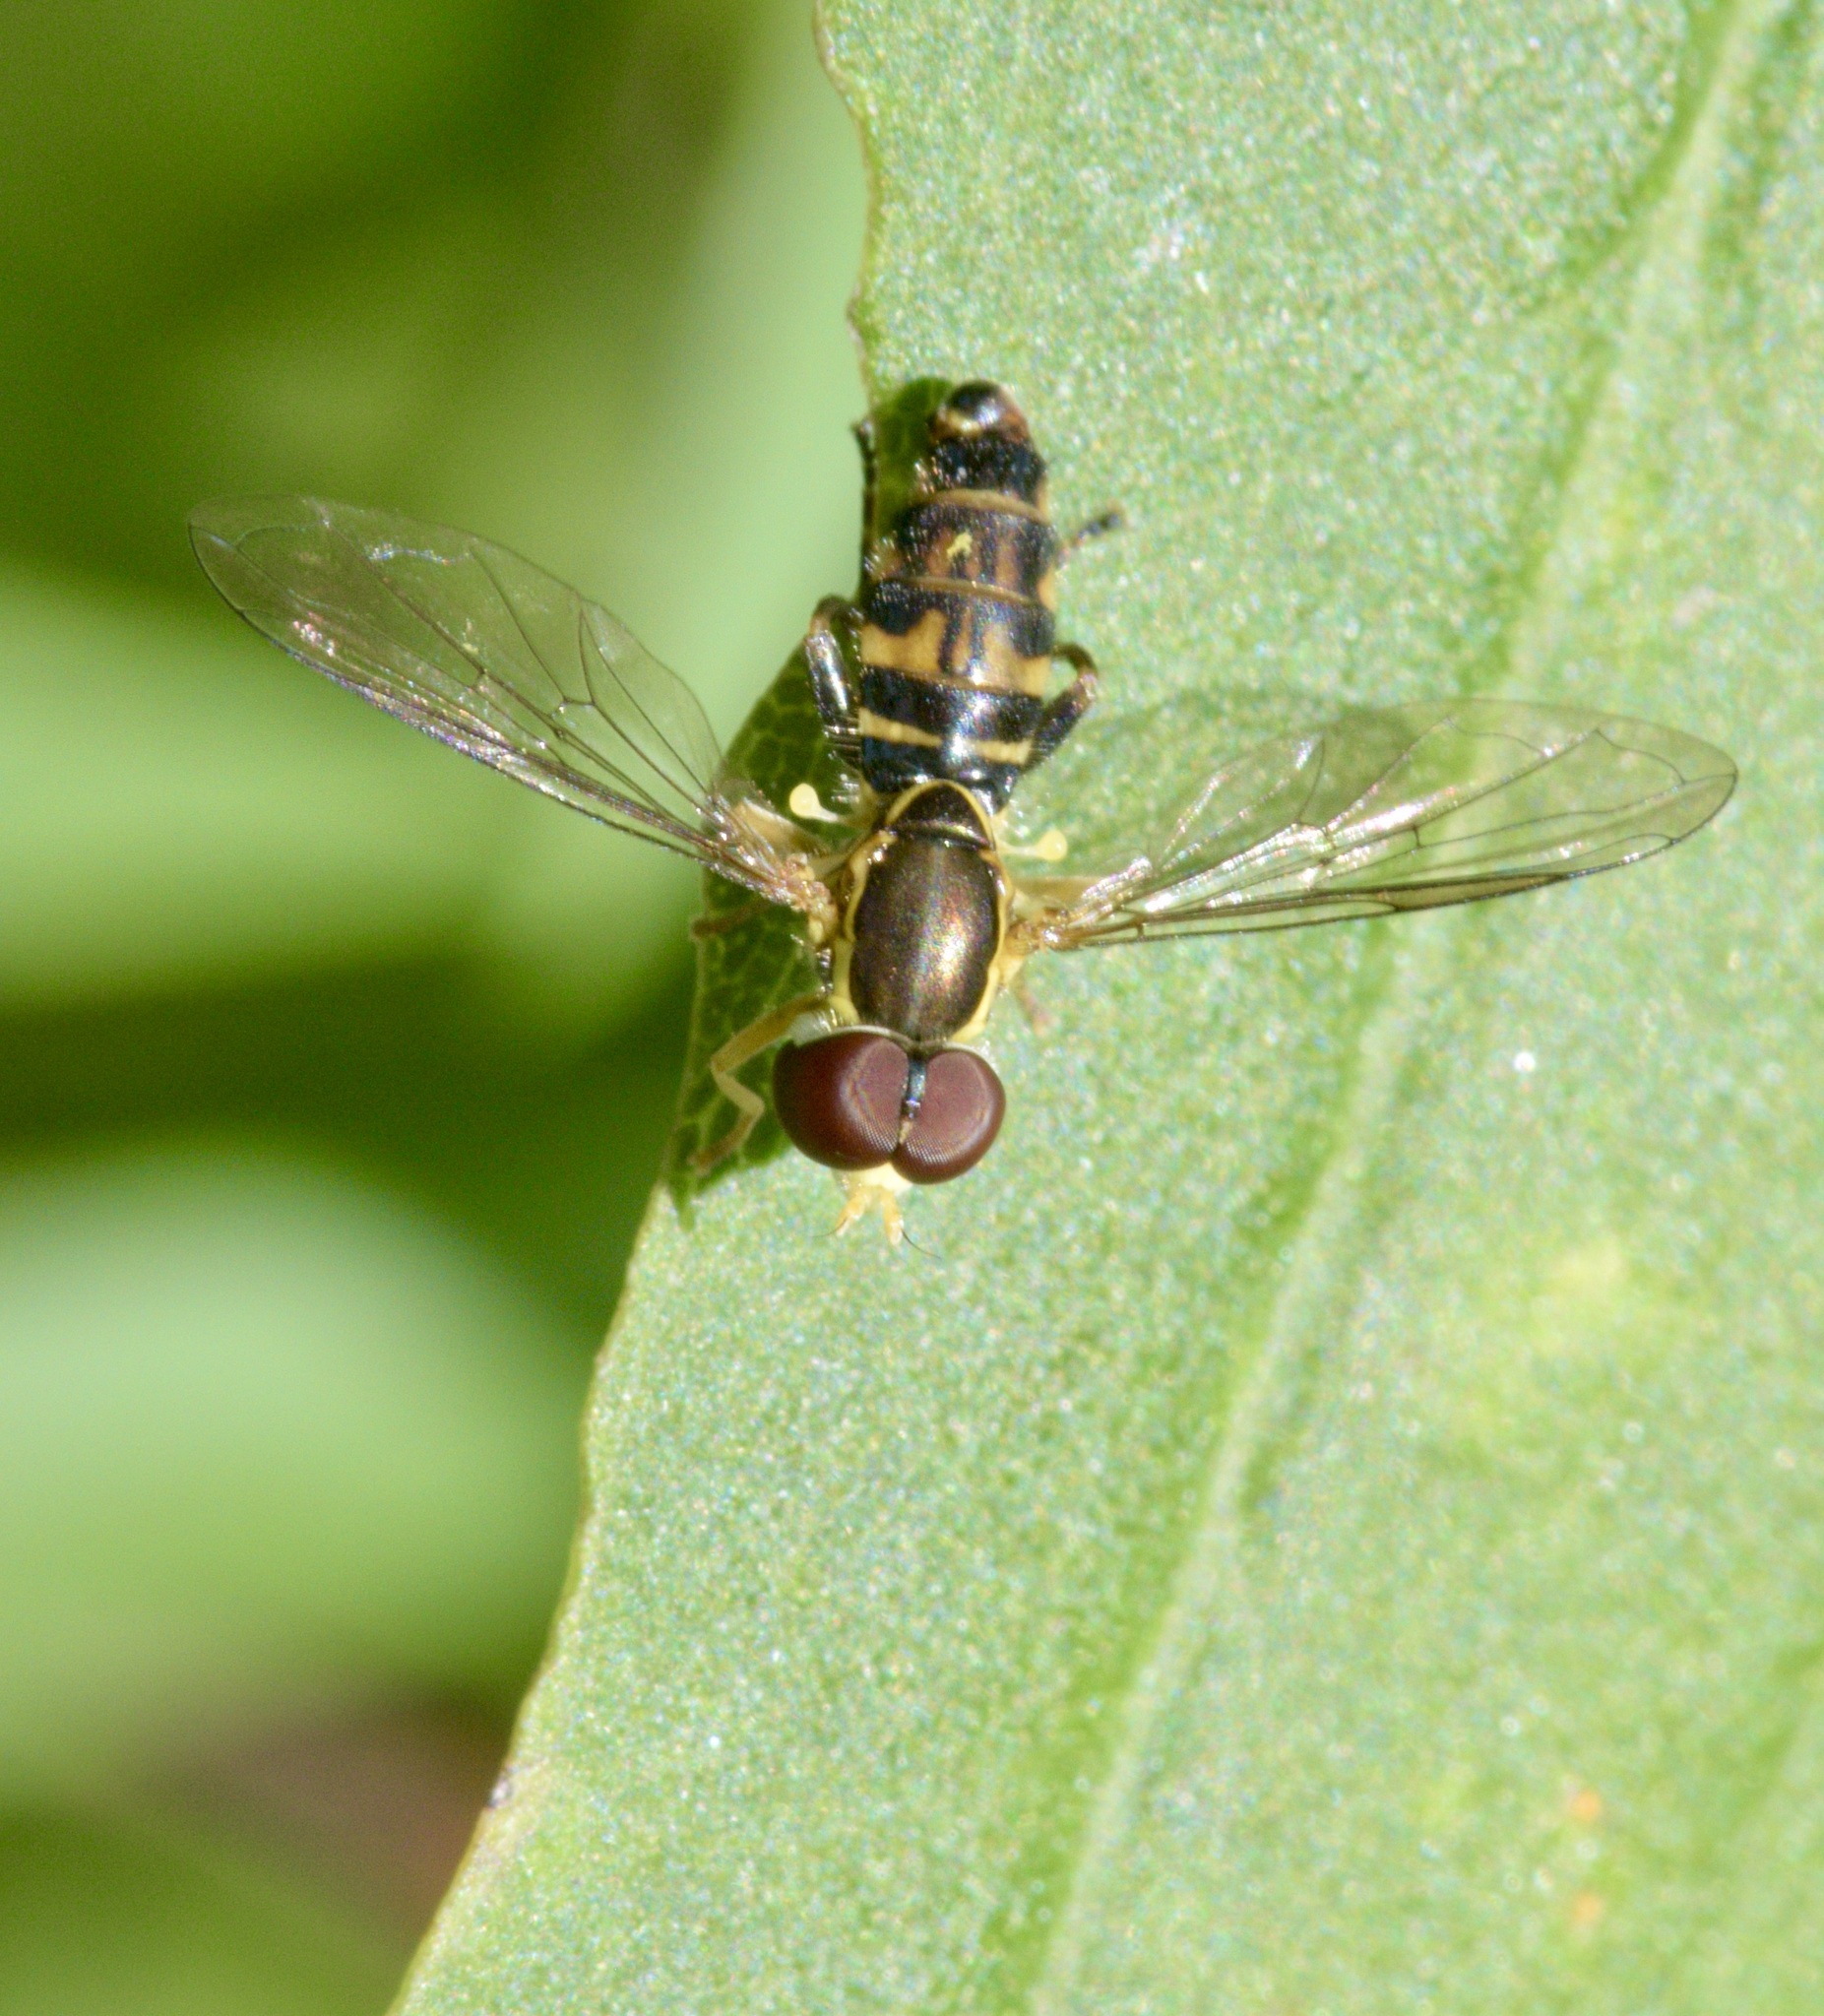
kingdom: Animalia
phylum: Arthropoda
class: Insecta
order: Diptera
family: Syrphidae
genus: Toxomerus
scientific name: Toxomerus geminatus
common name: Eastern calligrapher
